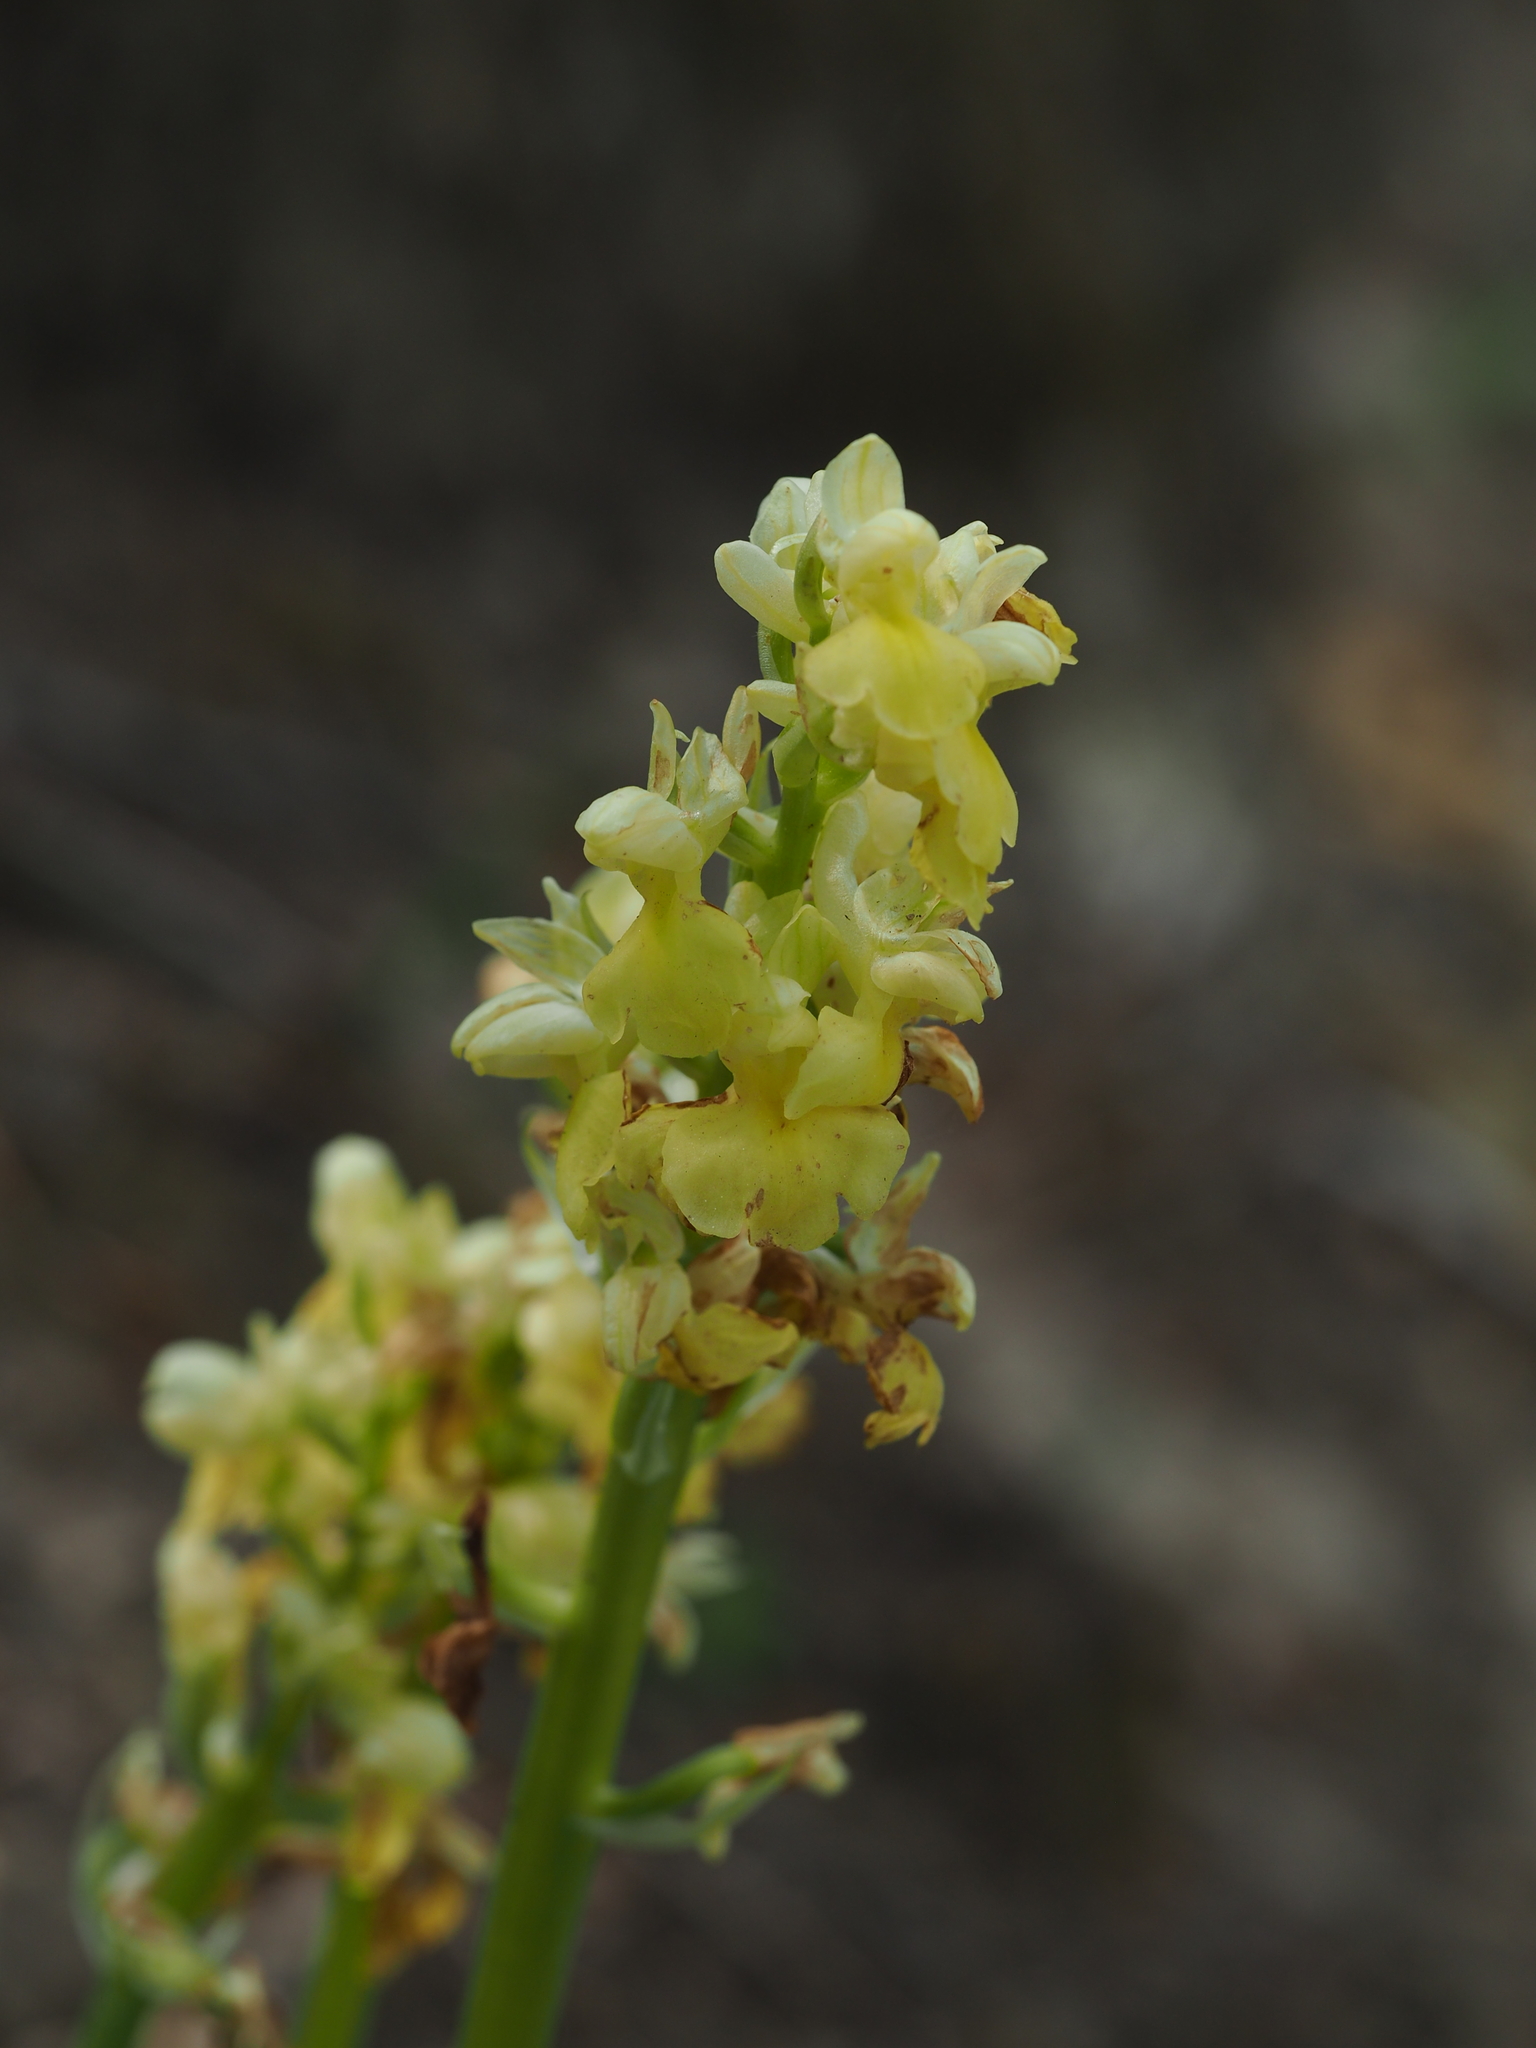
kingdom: Plantae
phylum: Tracheophyta
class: Liliopsida
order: Asparagales
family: Orchidaceae
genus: Orchis
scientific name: Orchis pallens
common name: Pale-flowered orchid
